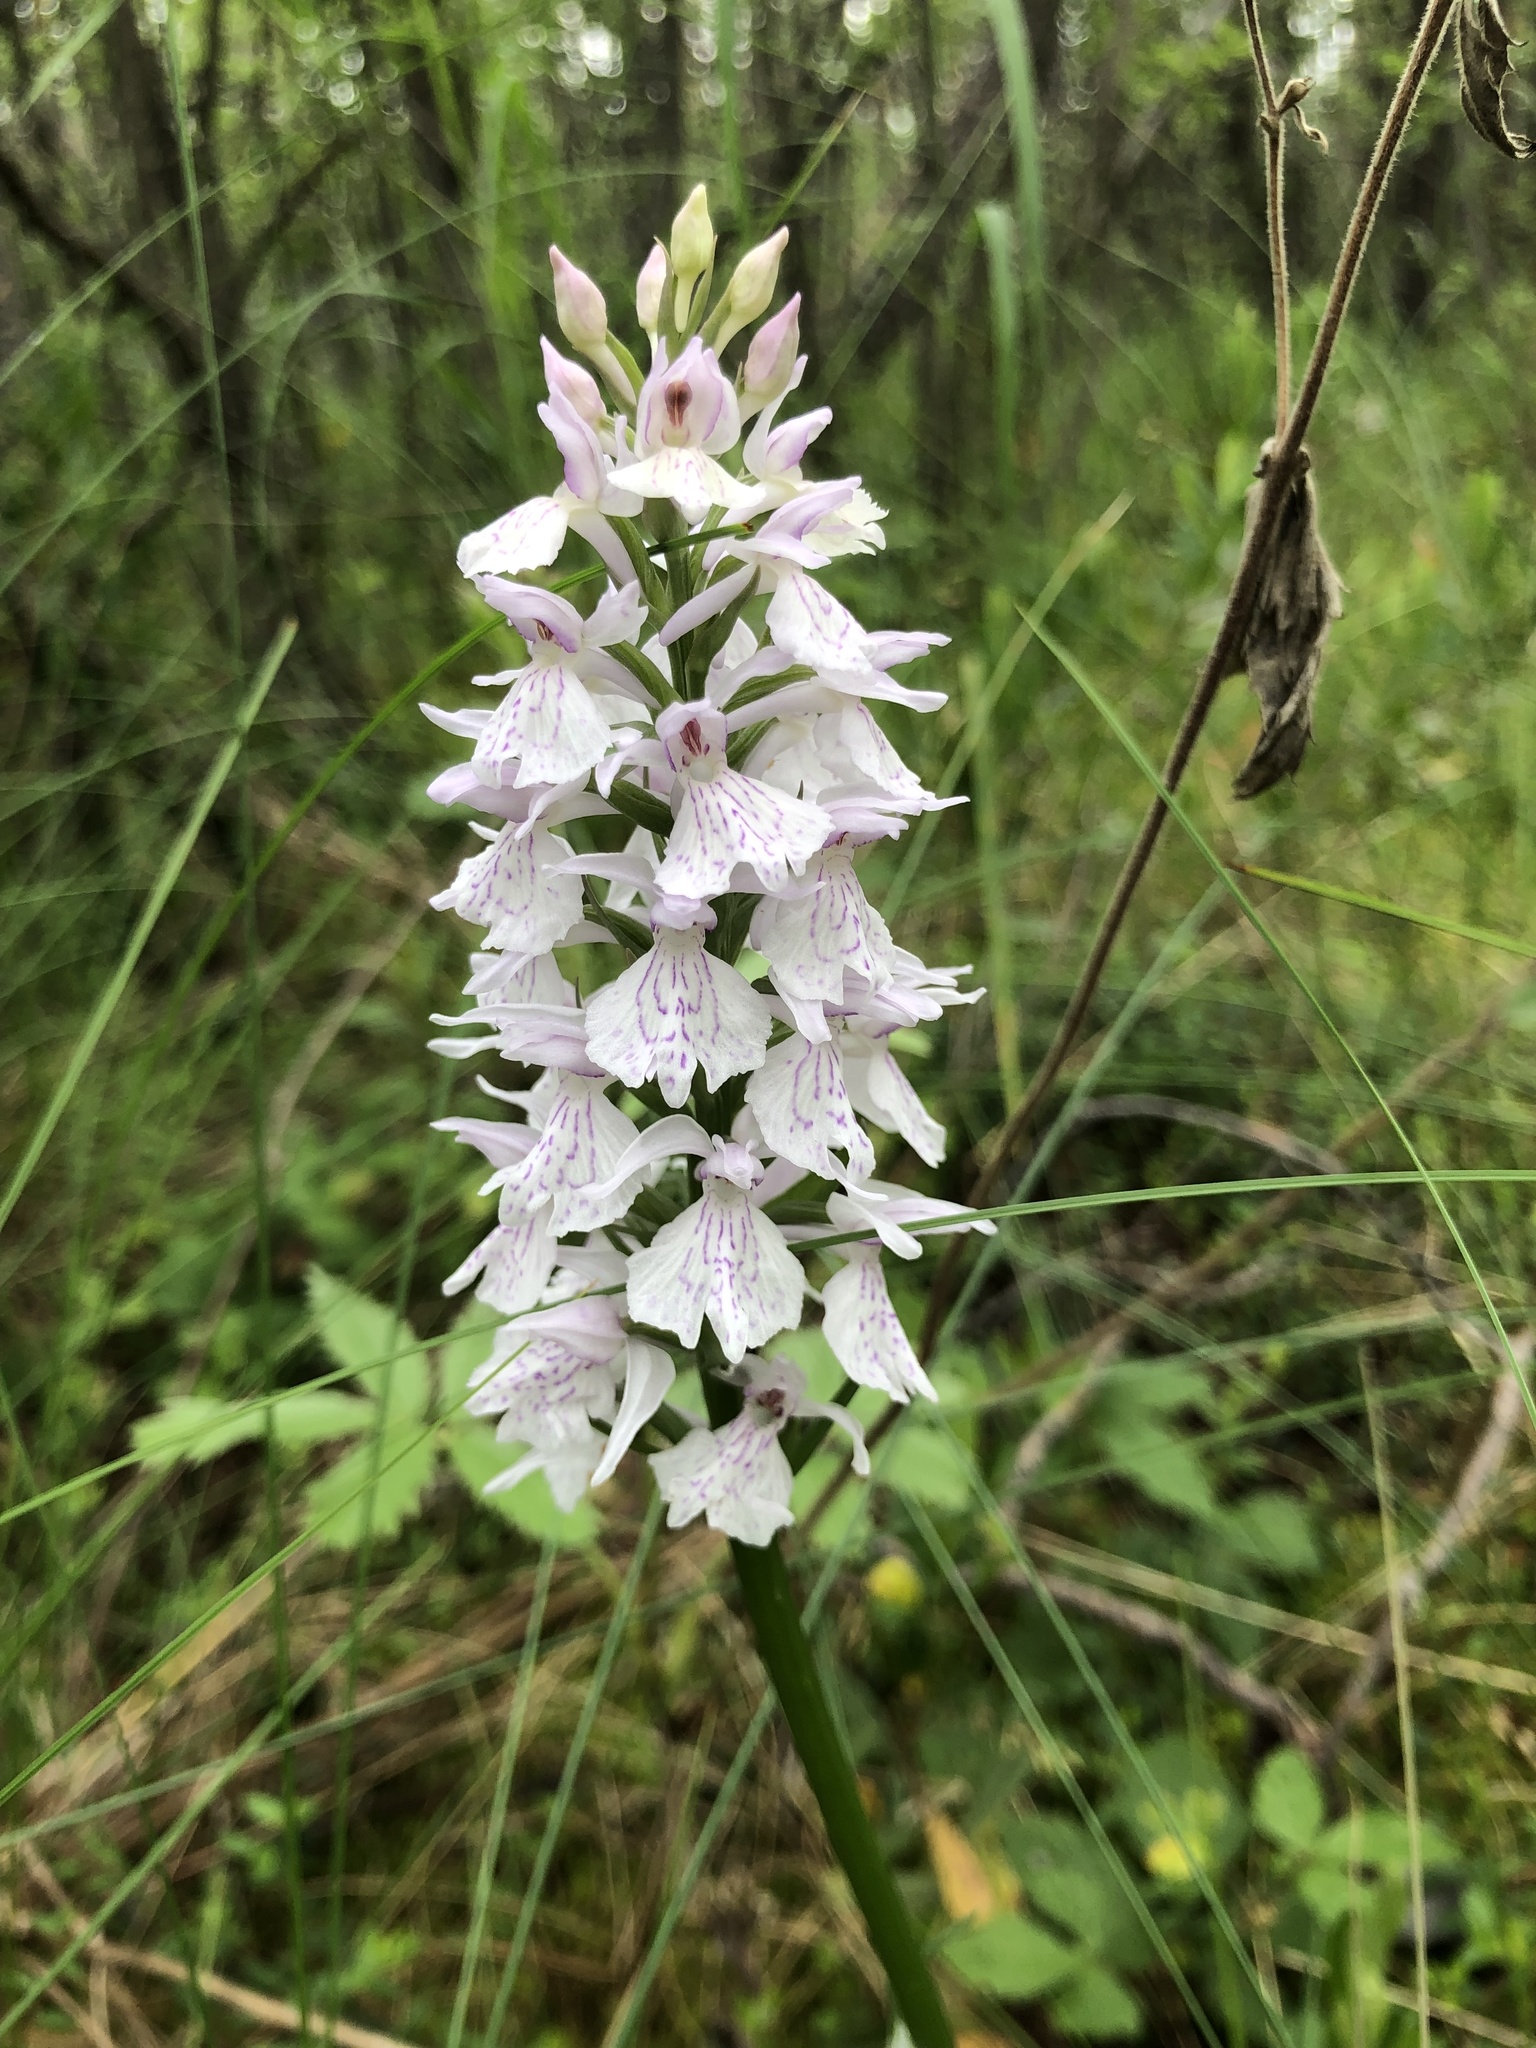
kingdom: Plantae
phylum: Tracheophyta
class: Liliopsida
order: Asparagales
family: Orchidaceae
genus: Dactylorhiza
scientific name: Dactylorhiza maculata
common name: Heath spotted-orchid
